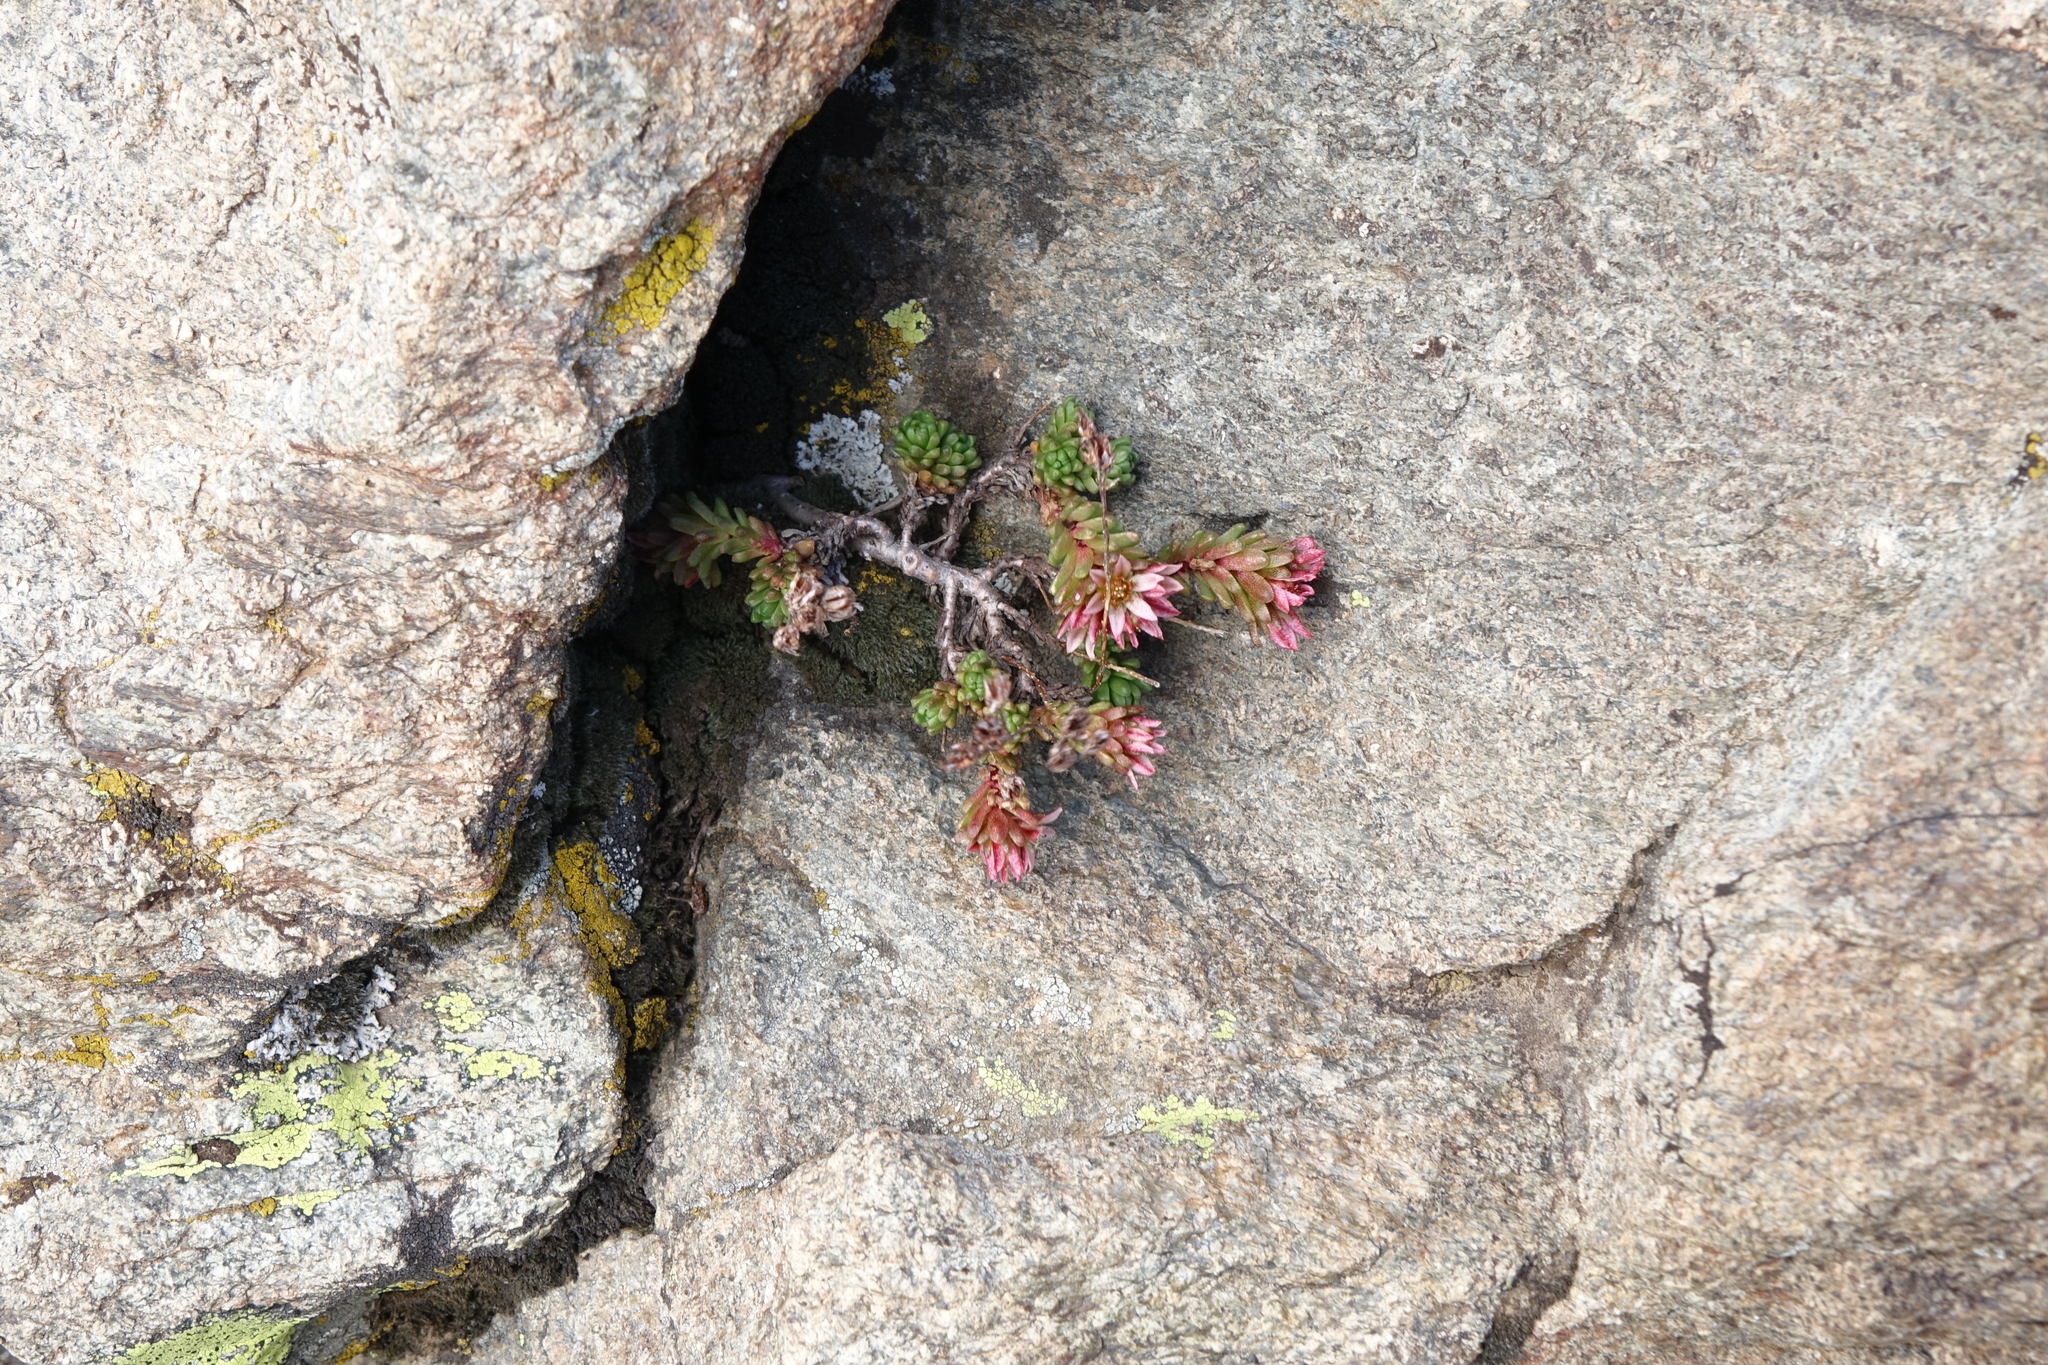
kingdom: Plantae
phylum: Tracheophyta
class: Magnoliopsida
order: Saxifragales
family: Crassulaceae
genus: Sedum
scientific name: Sedum tenellum
